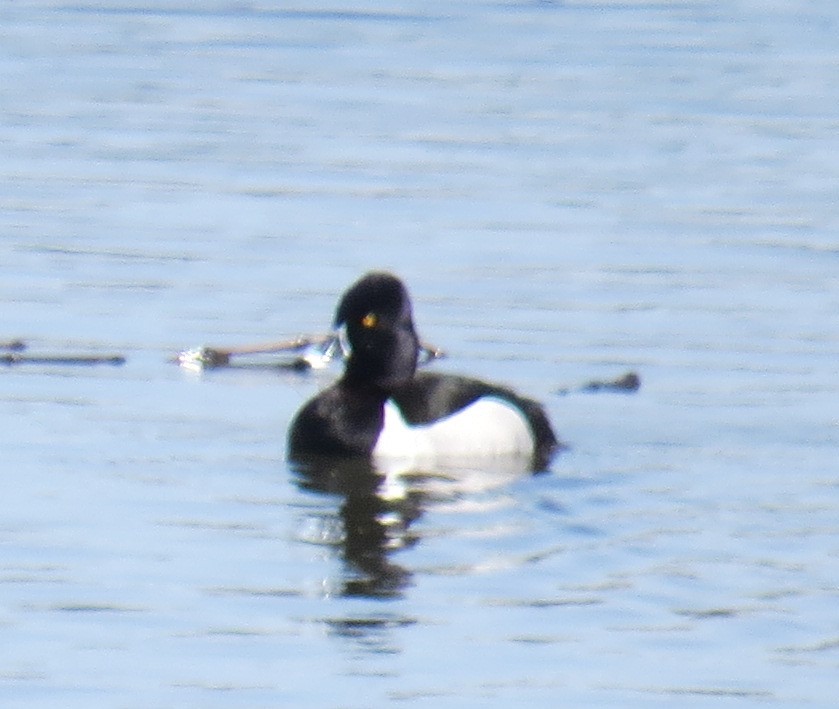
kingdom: Animalia
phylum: Chordata
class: Aves
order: Anseriformes
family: Anatidae
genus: Aythya
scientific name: Aythya collaris
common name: Ring-necked duck
